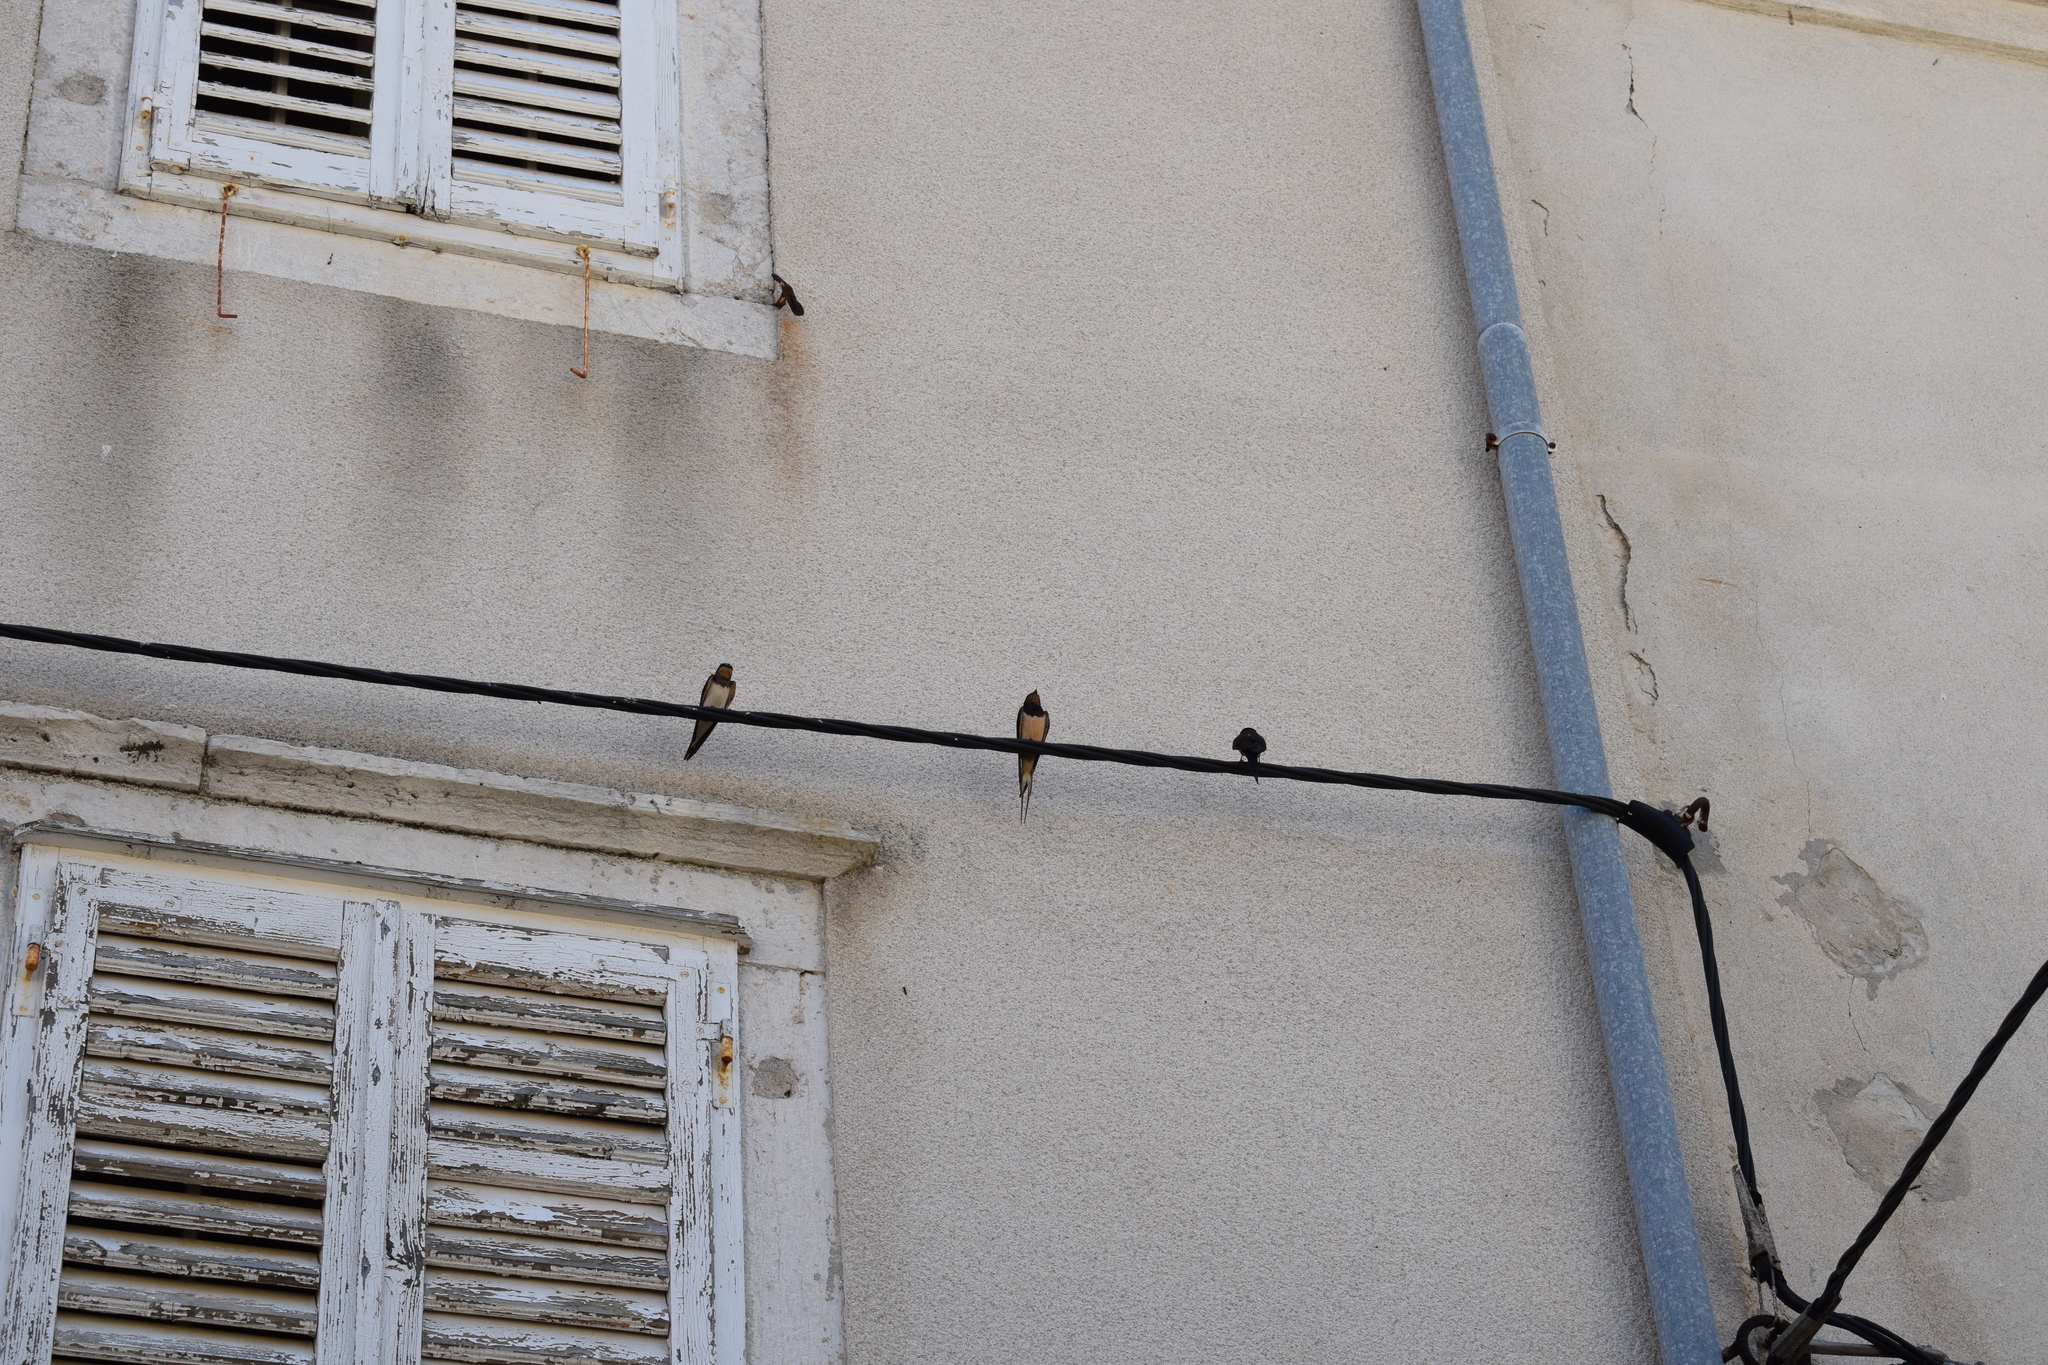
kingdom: Animalia
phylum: Chordata
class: Aves
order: Passeriformes
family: Hirundinidae
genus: Hirundo
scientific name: Hirundo rustica
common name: Barn swallow
